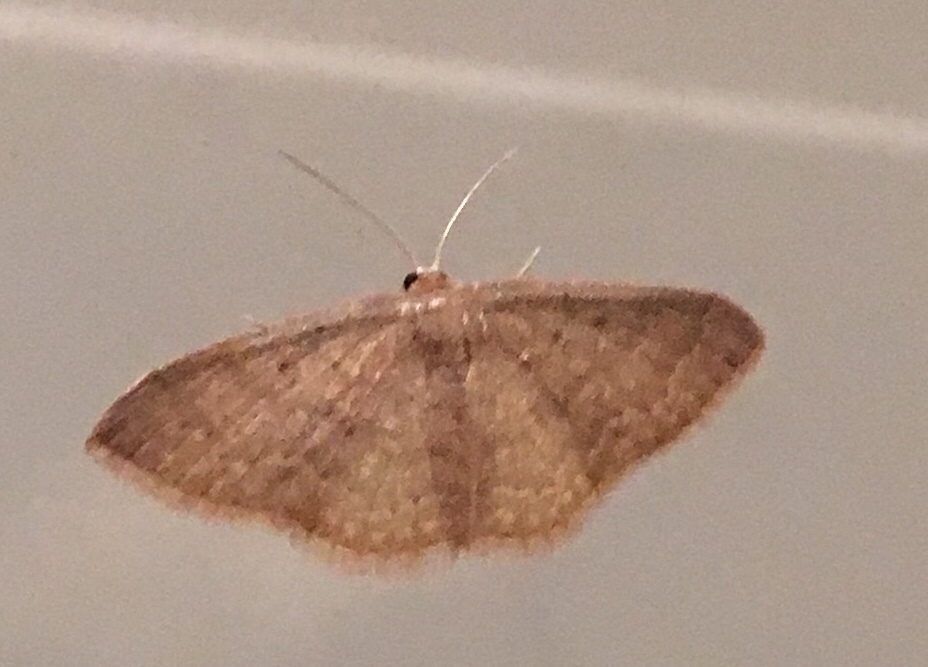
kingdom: Animalia
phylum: Arthropoda
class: Insecta
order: Lepidoptera
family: Geometridae
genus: Pleuroprucha
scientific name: Pleuroprucha insulsaria
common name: Common tan wave
